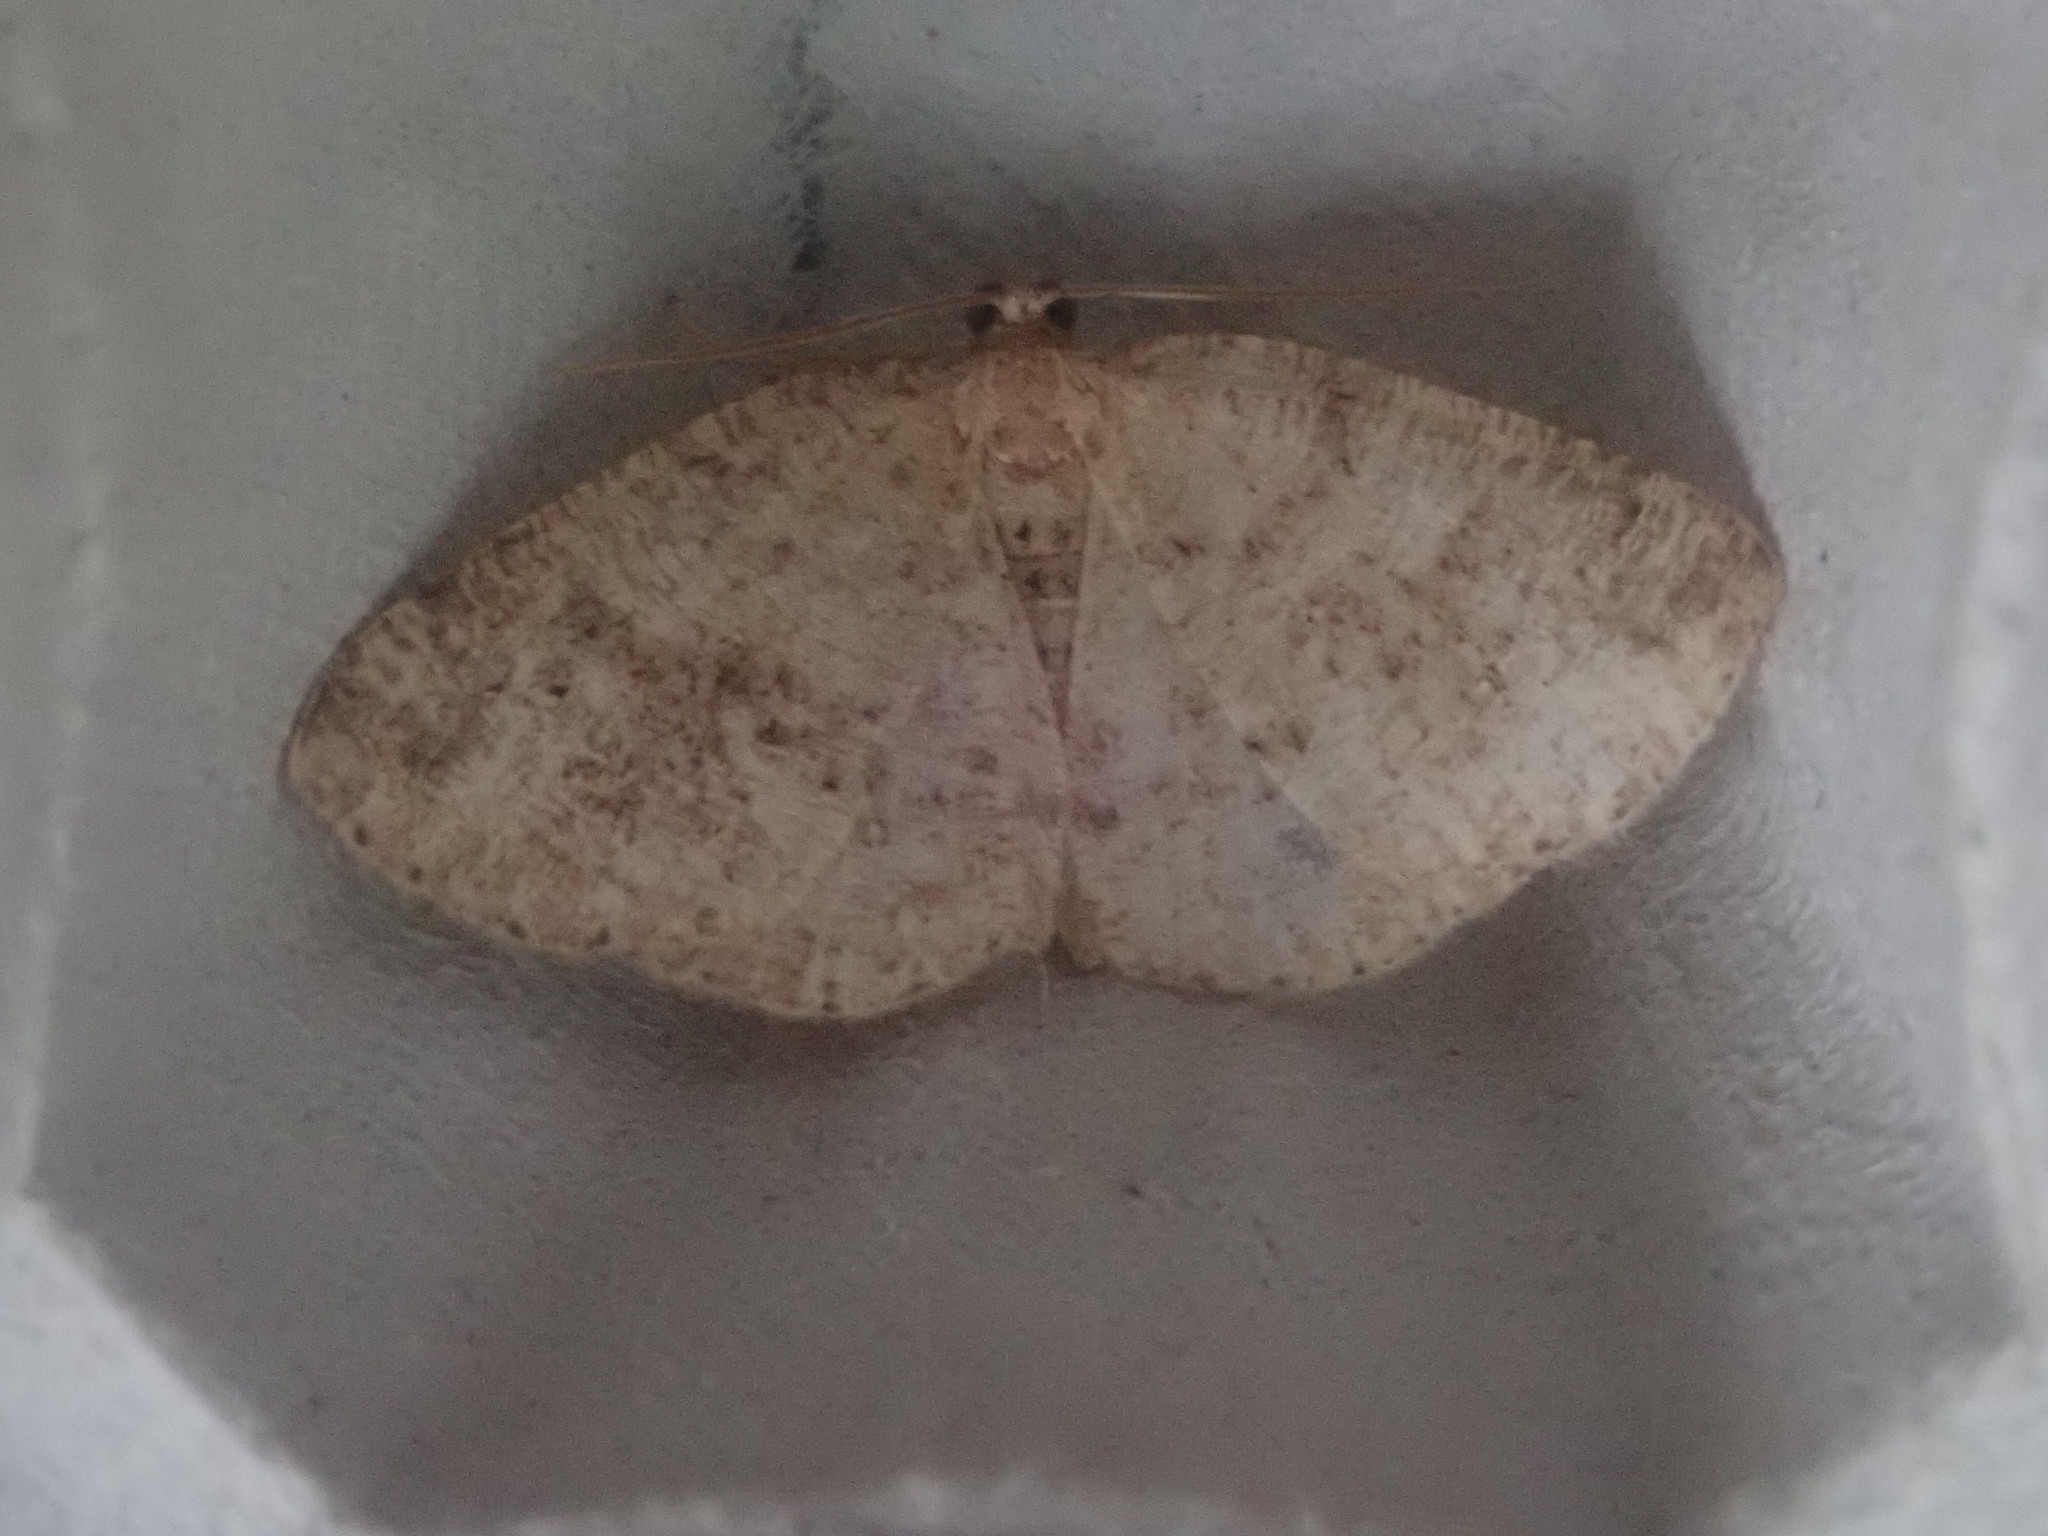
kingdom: Animalia
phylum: Arthropoda
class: Insecta
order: Lepidoptera
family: Geometridae
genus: Homochlodes
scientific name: Homochlodes fritillaria
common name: Pale homochlodes
